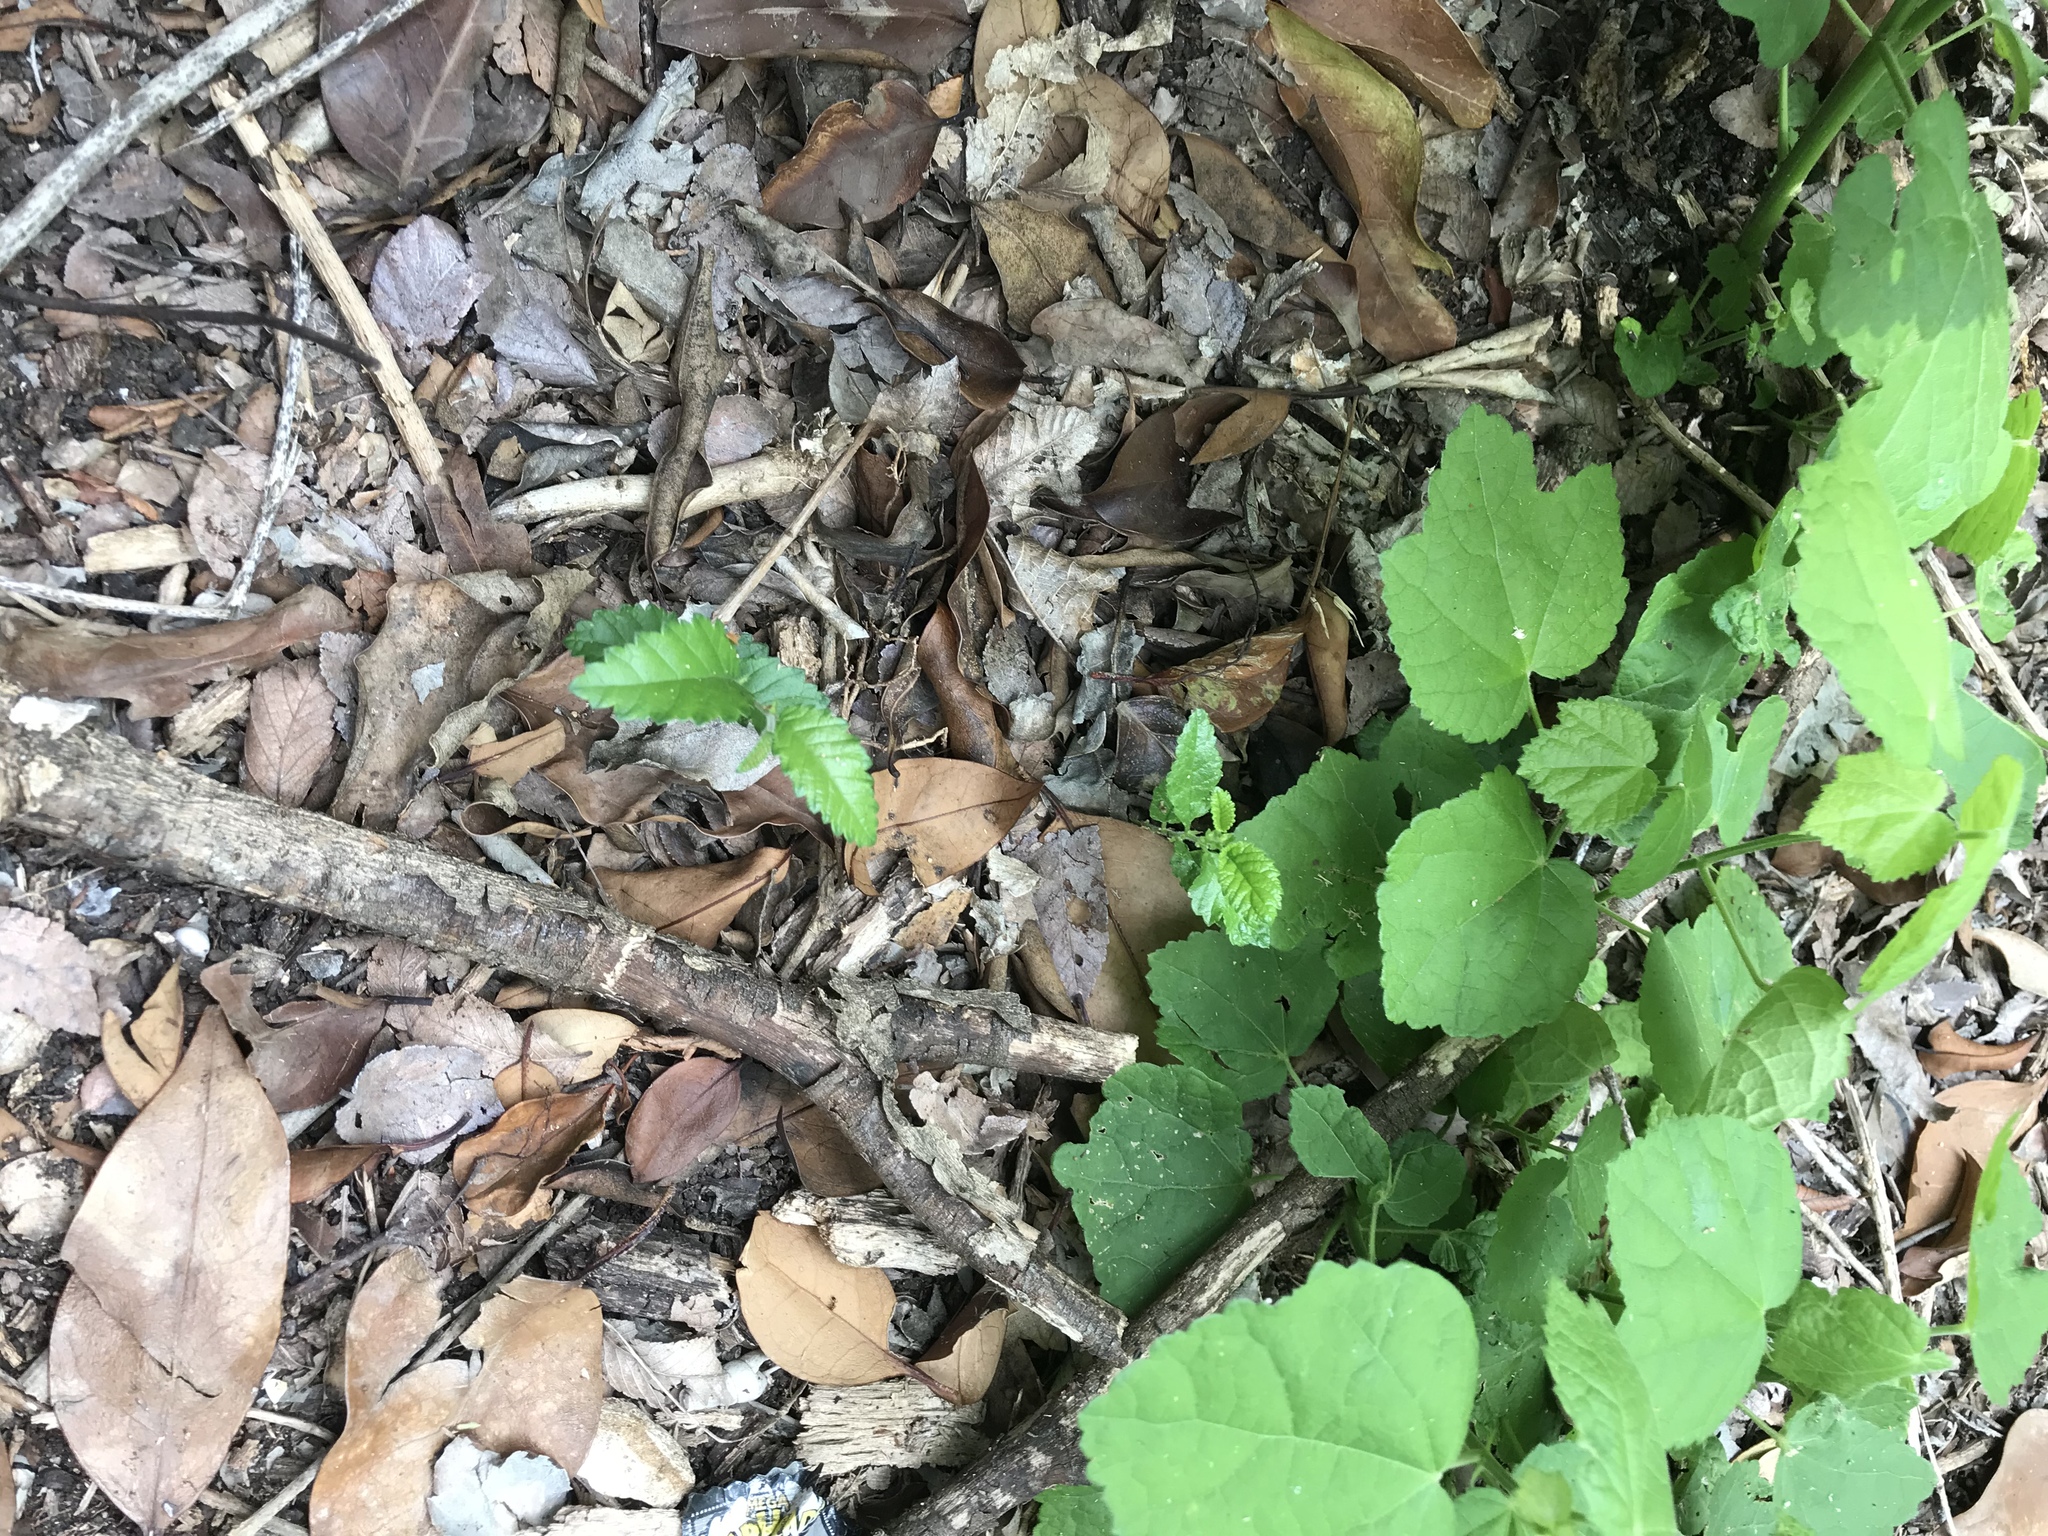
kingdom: Plantae
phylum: Tracheophyta
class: Magnoliopsida
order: Rosales
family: Ulmaceae
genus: Ulmus
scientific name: Ulmus crassifolia
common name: Basket elm
